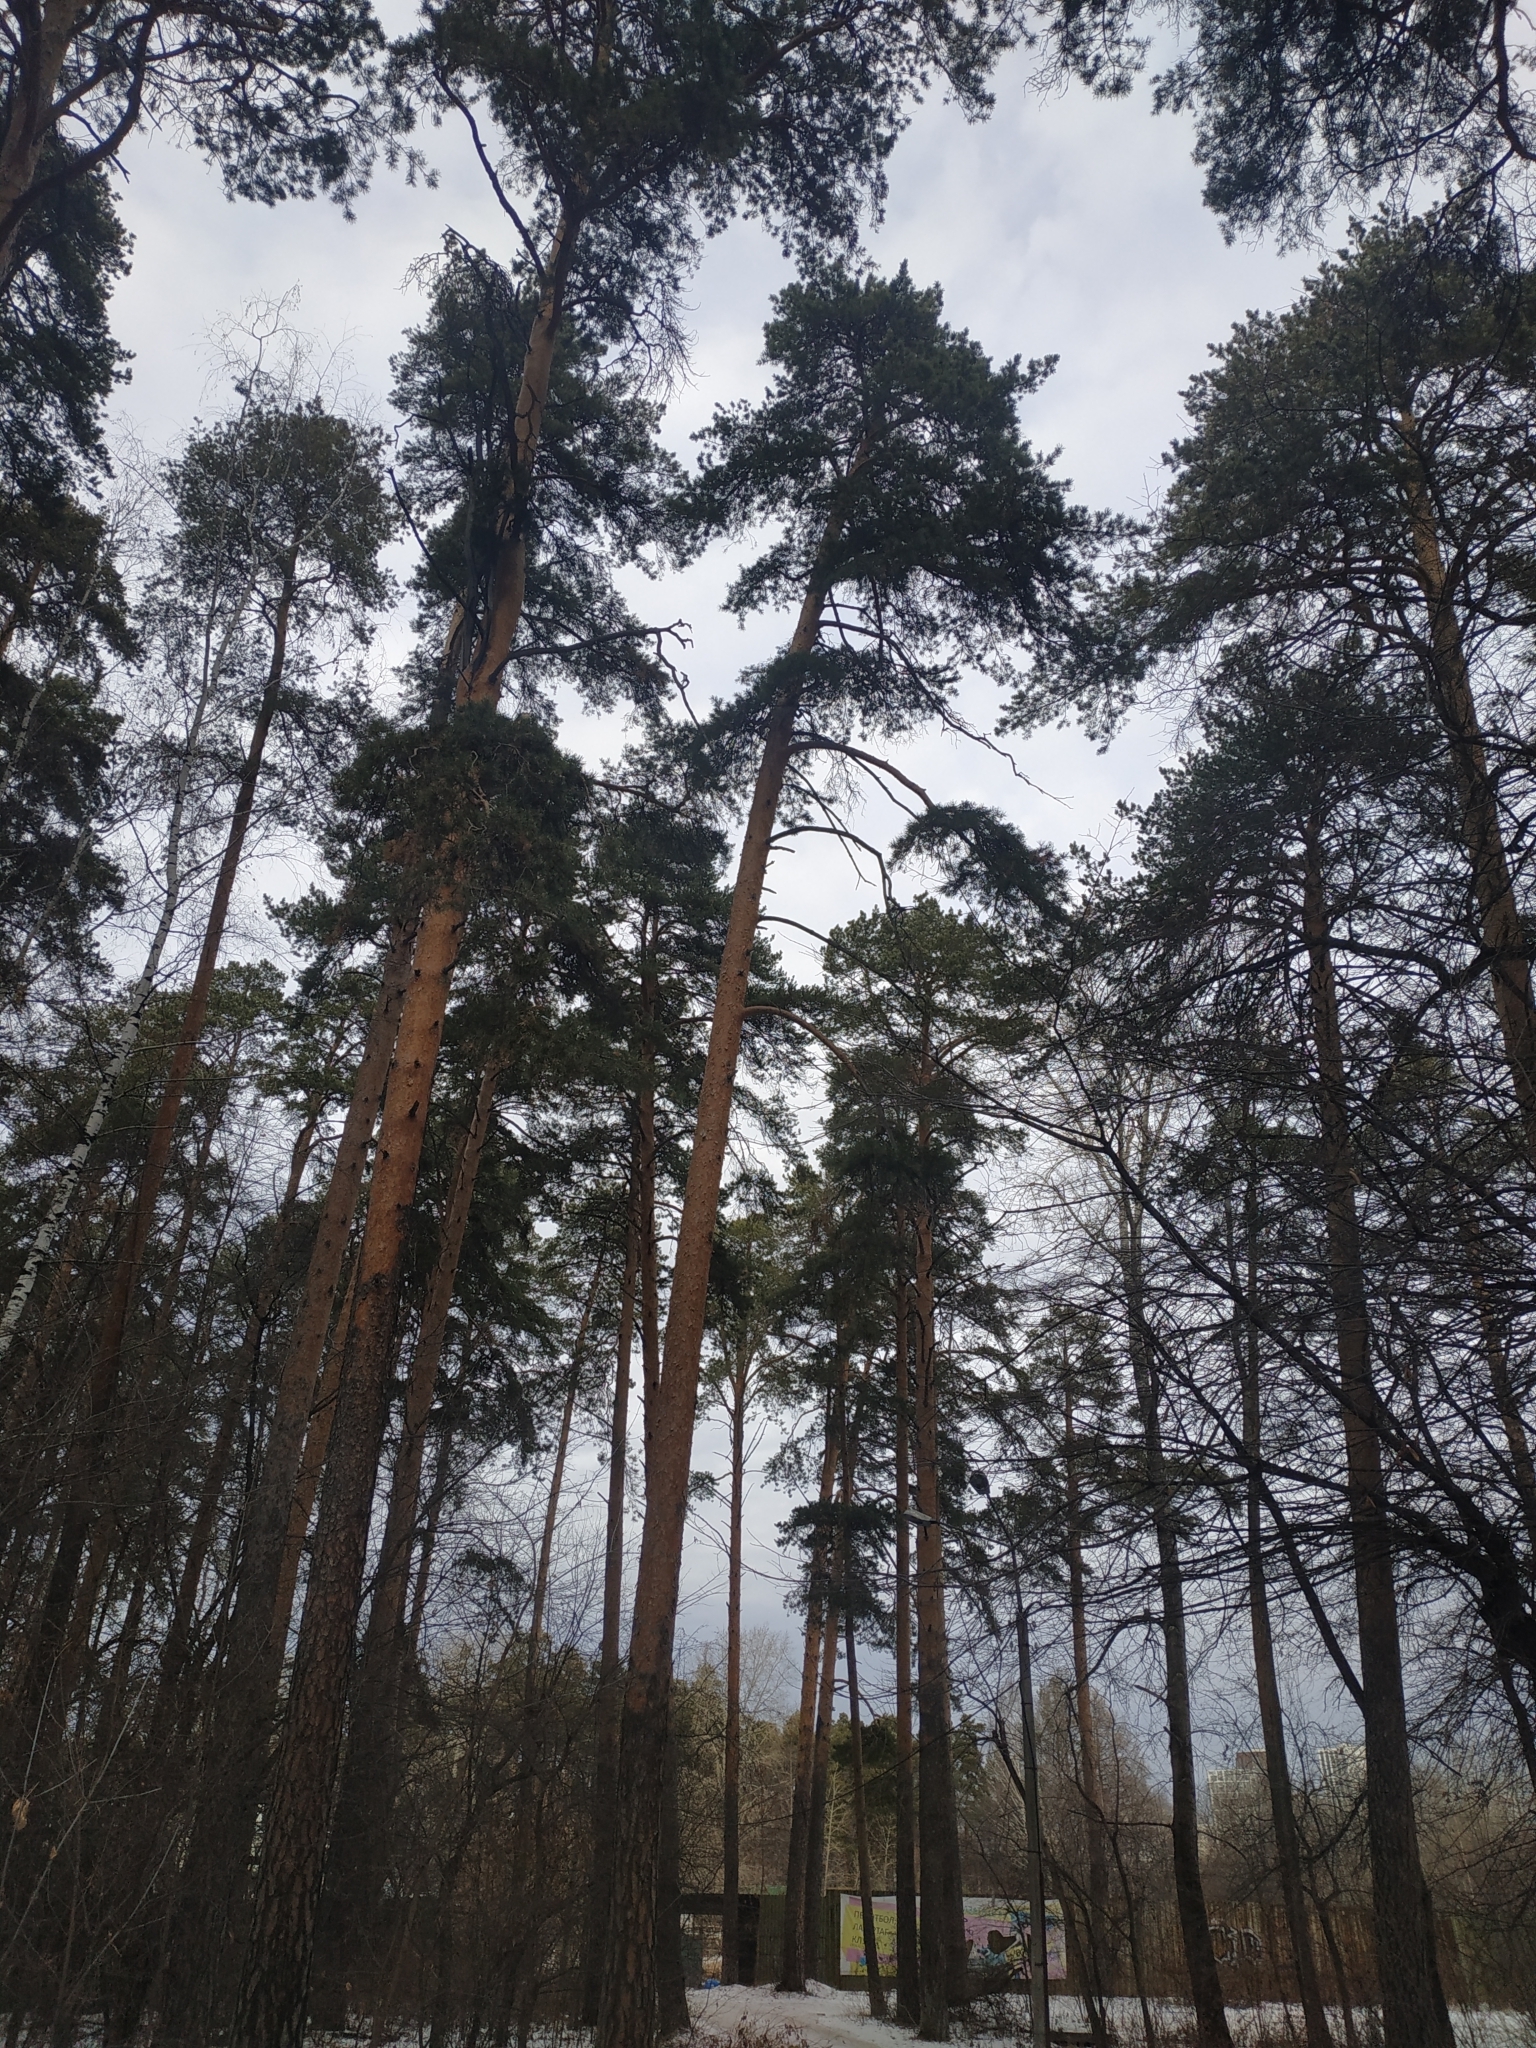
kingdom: Plantae
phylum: Tracheophyta
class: Pinopsida
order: Pinales
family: Pinaceae
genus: Pinus
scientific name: Pinus sylvestris
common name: Scots pine
